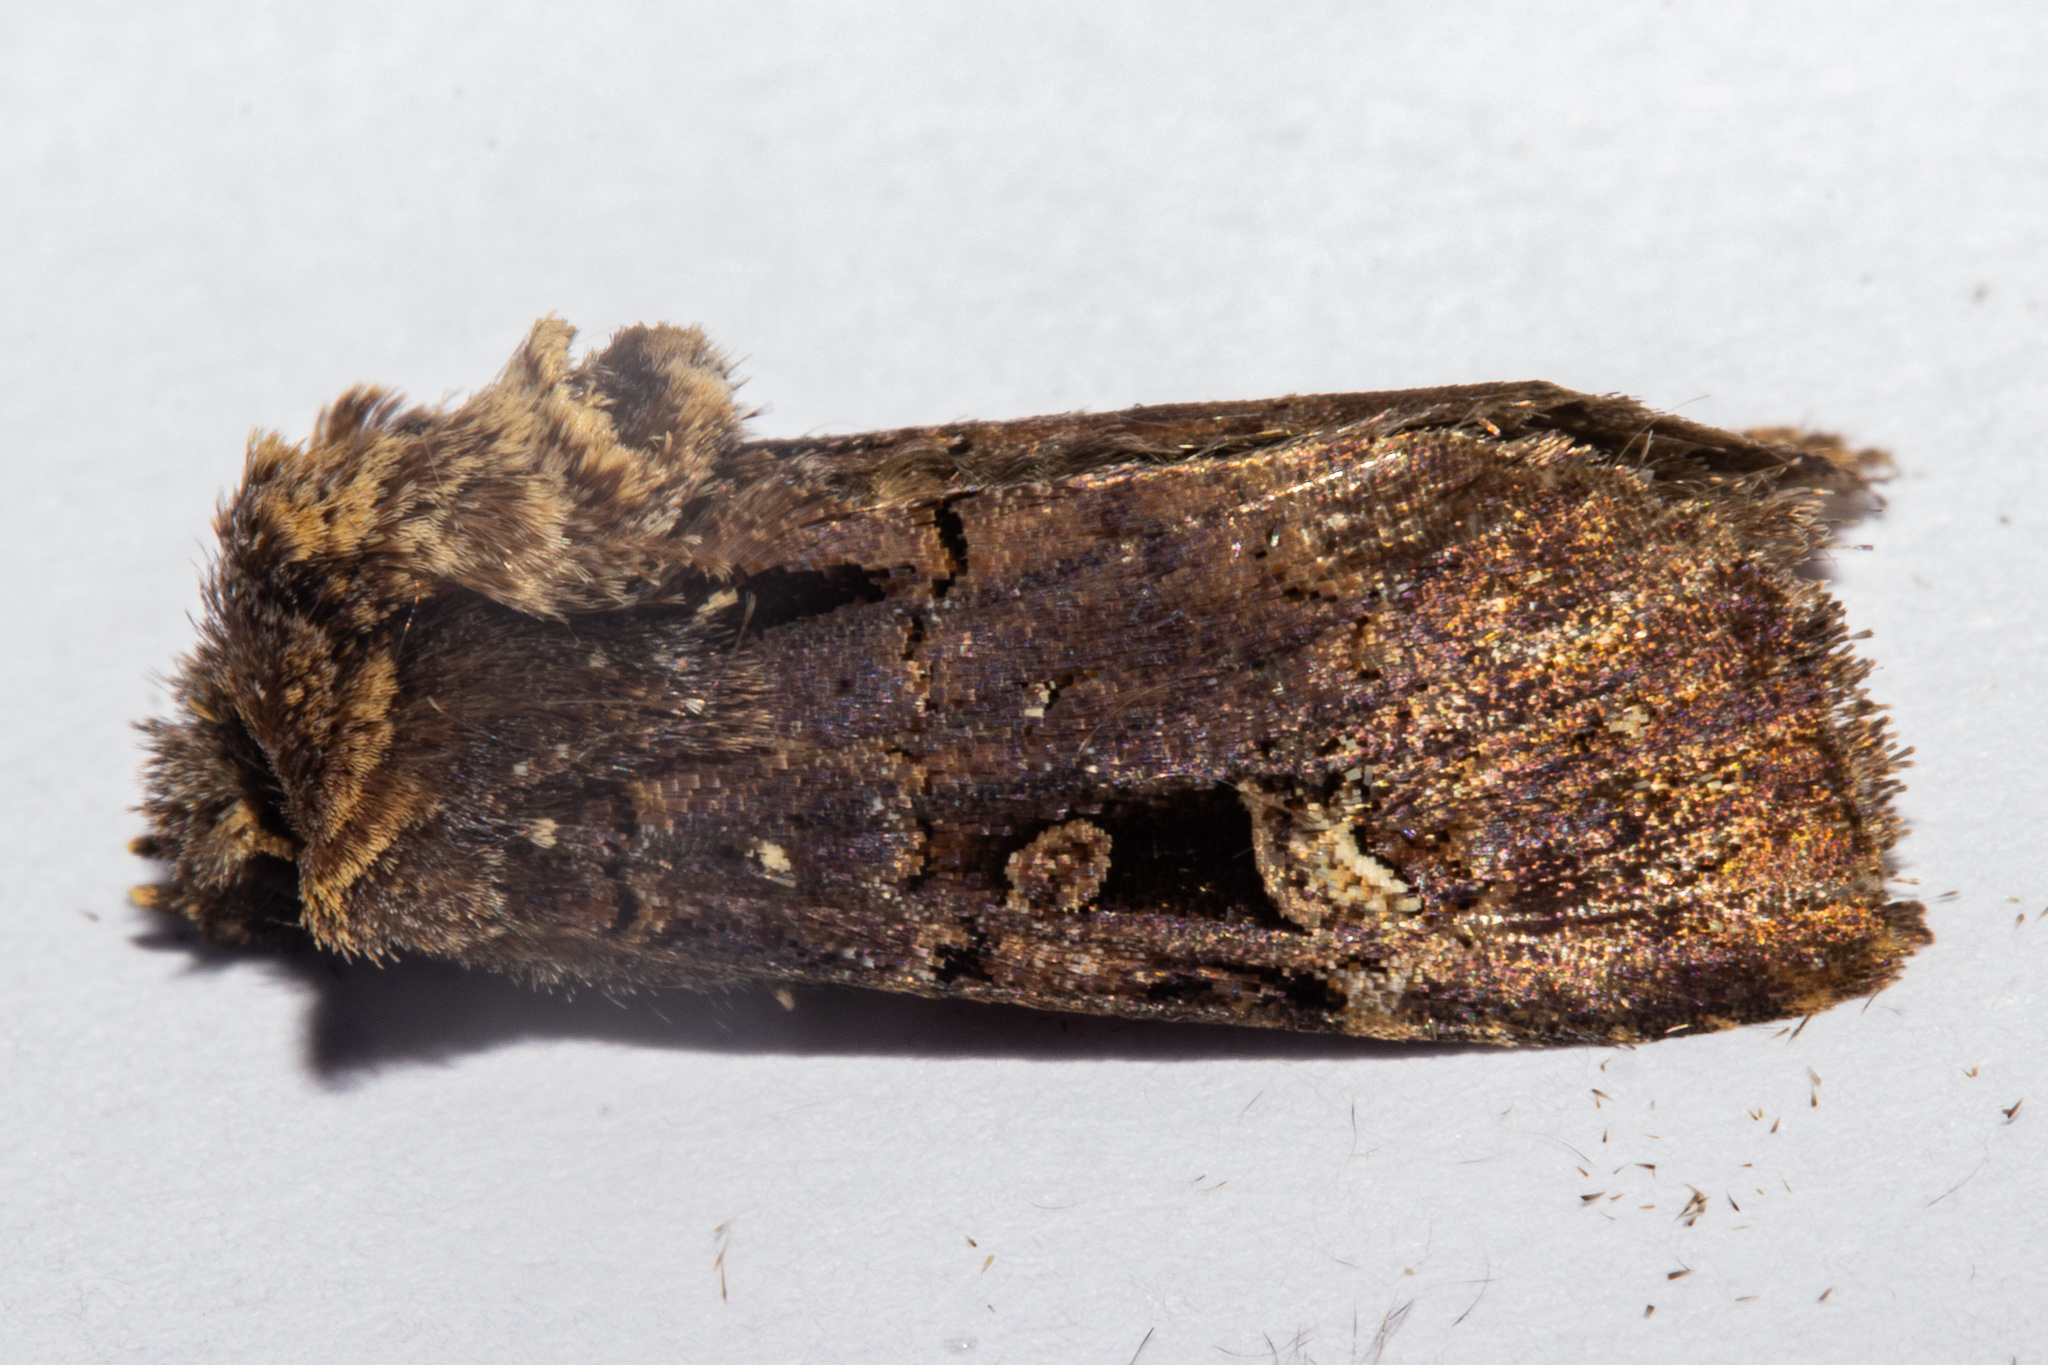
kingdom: Animalia
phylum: Arthropoda
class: Insecta
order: Lepidoptera
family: Noctuidae
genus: Austramathes
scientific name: Austramathes
